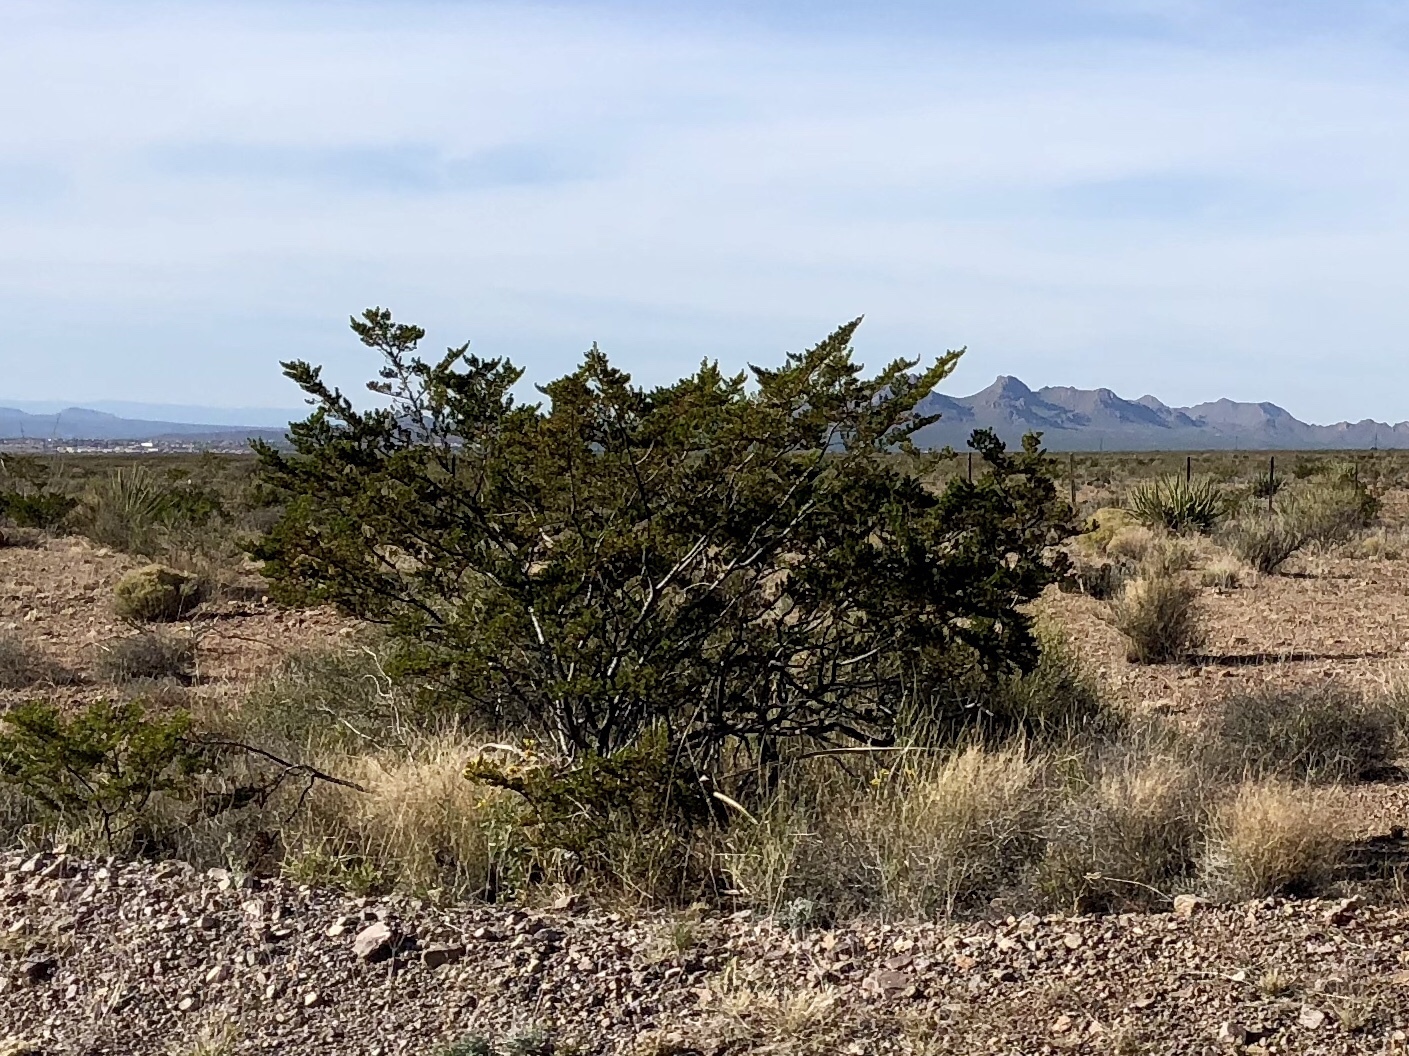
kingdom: Plantae
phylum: Tracheophyta
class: Magnoliopsida
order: Zygophyllales
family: Zygophyllaceae
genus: Larrea
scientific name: Larrea tridentata
